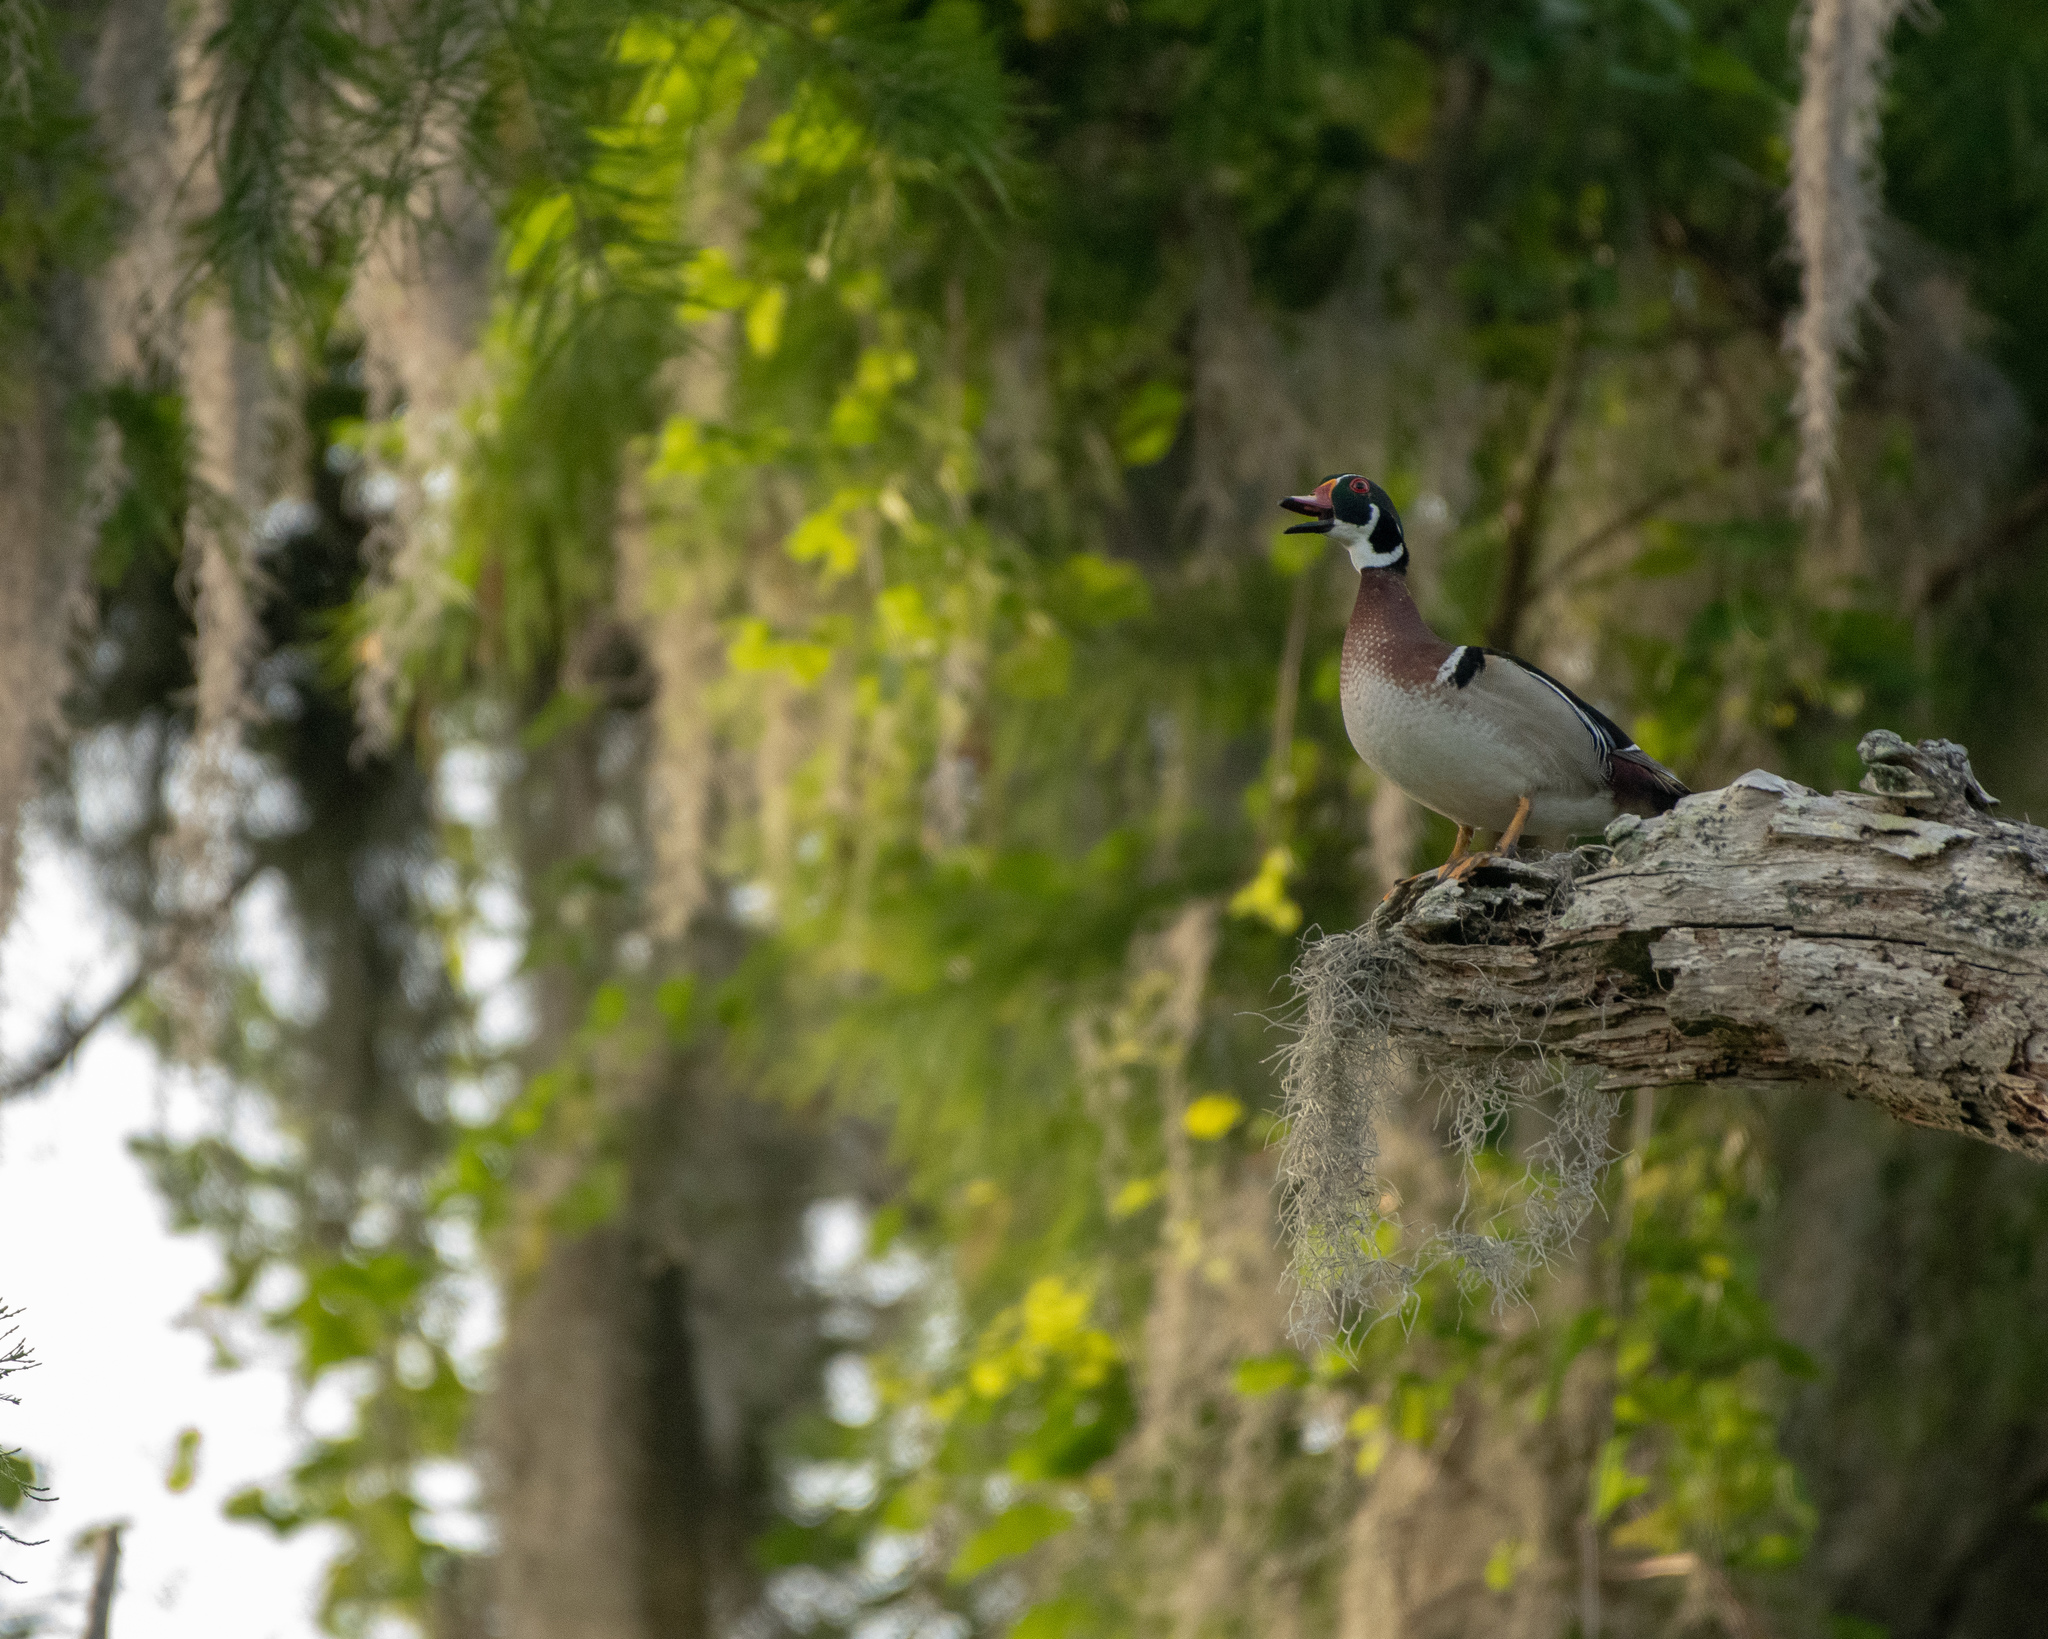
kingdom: Animalia
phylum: Chordata
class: Aves
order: Anseriformes
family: Anatidae
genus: Aix
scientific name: Aix sponsa
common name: Wood duck
